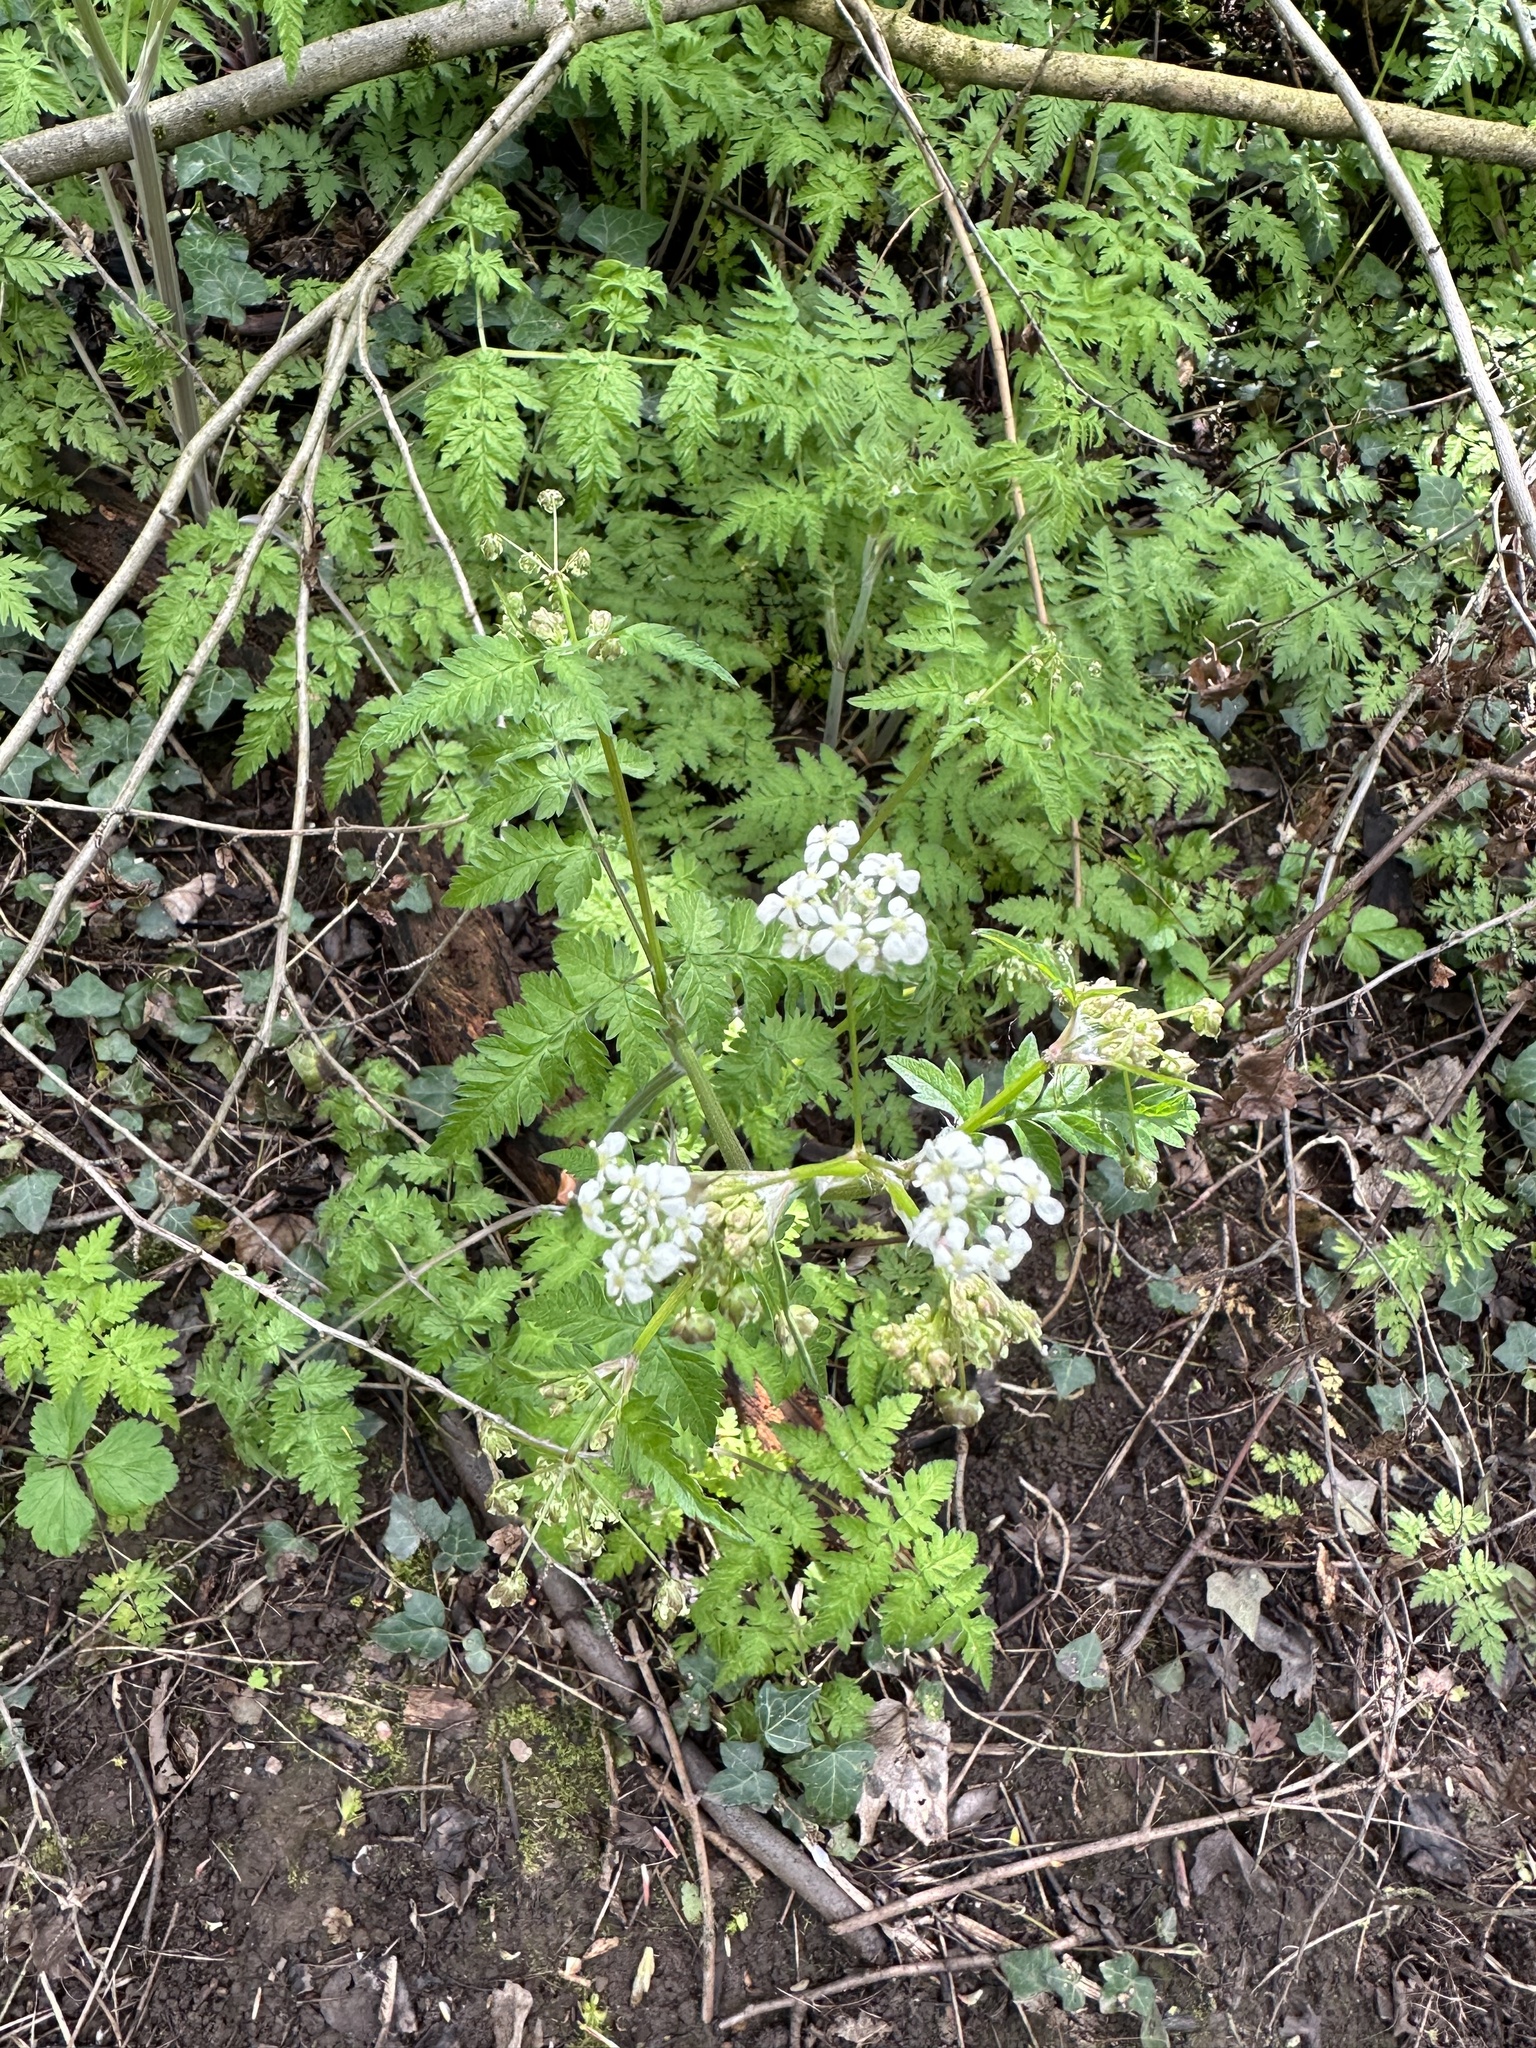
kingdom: Plantae
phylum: Tracheophyta
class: Magnoliopsida
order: Apiales
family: Apiaceae
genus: Anthriscus
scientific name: Anthriscus sylvestris
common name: Cow parsley
